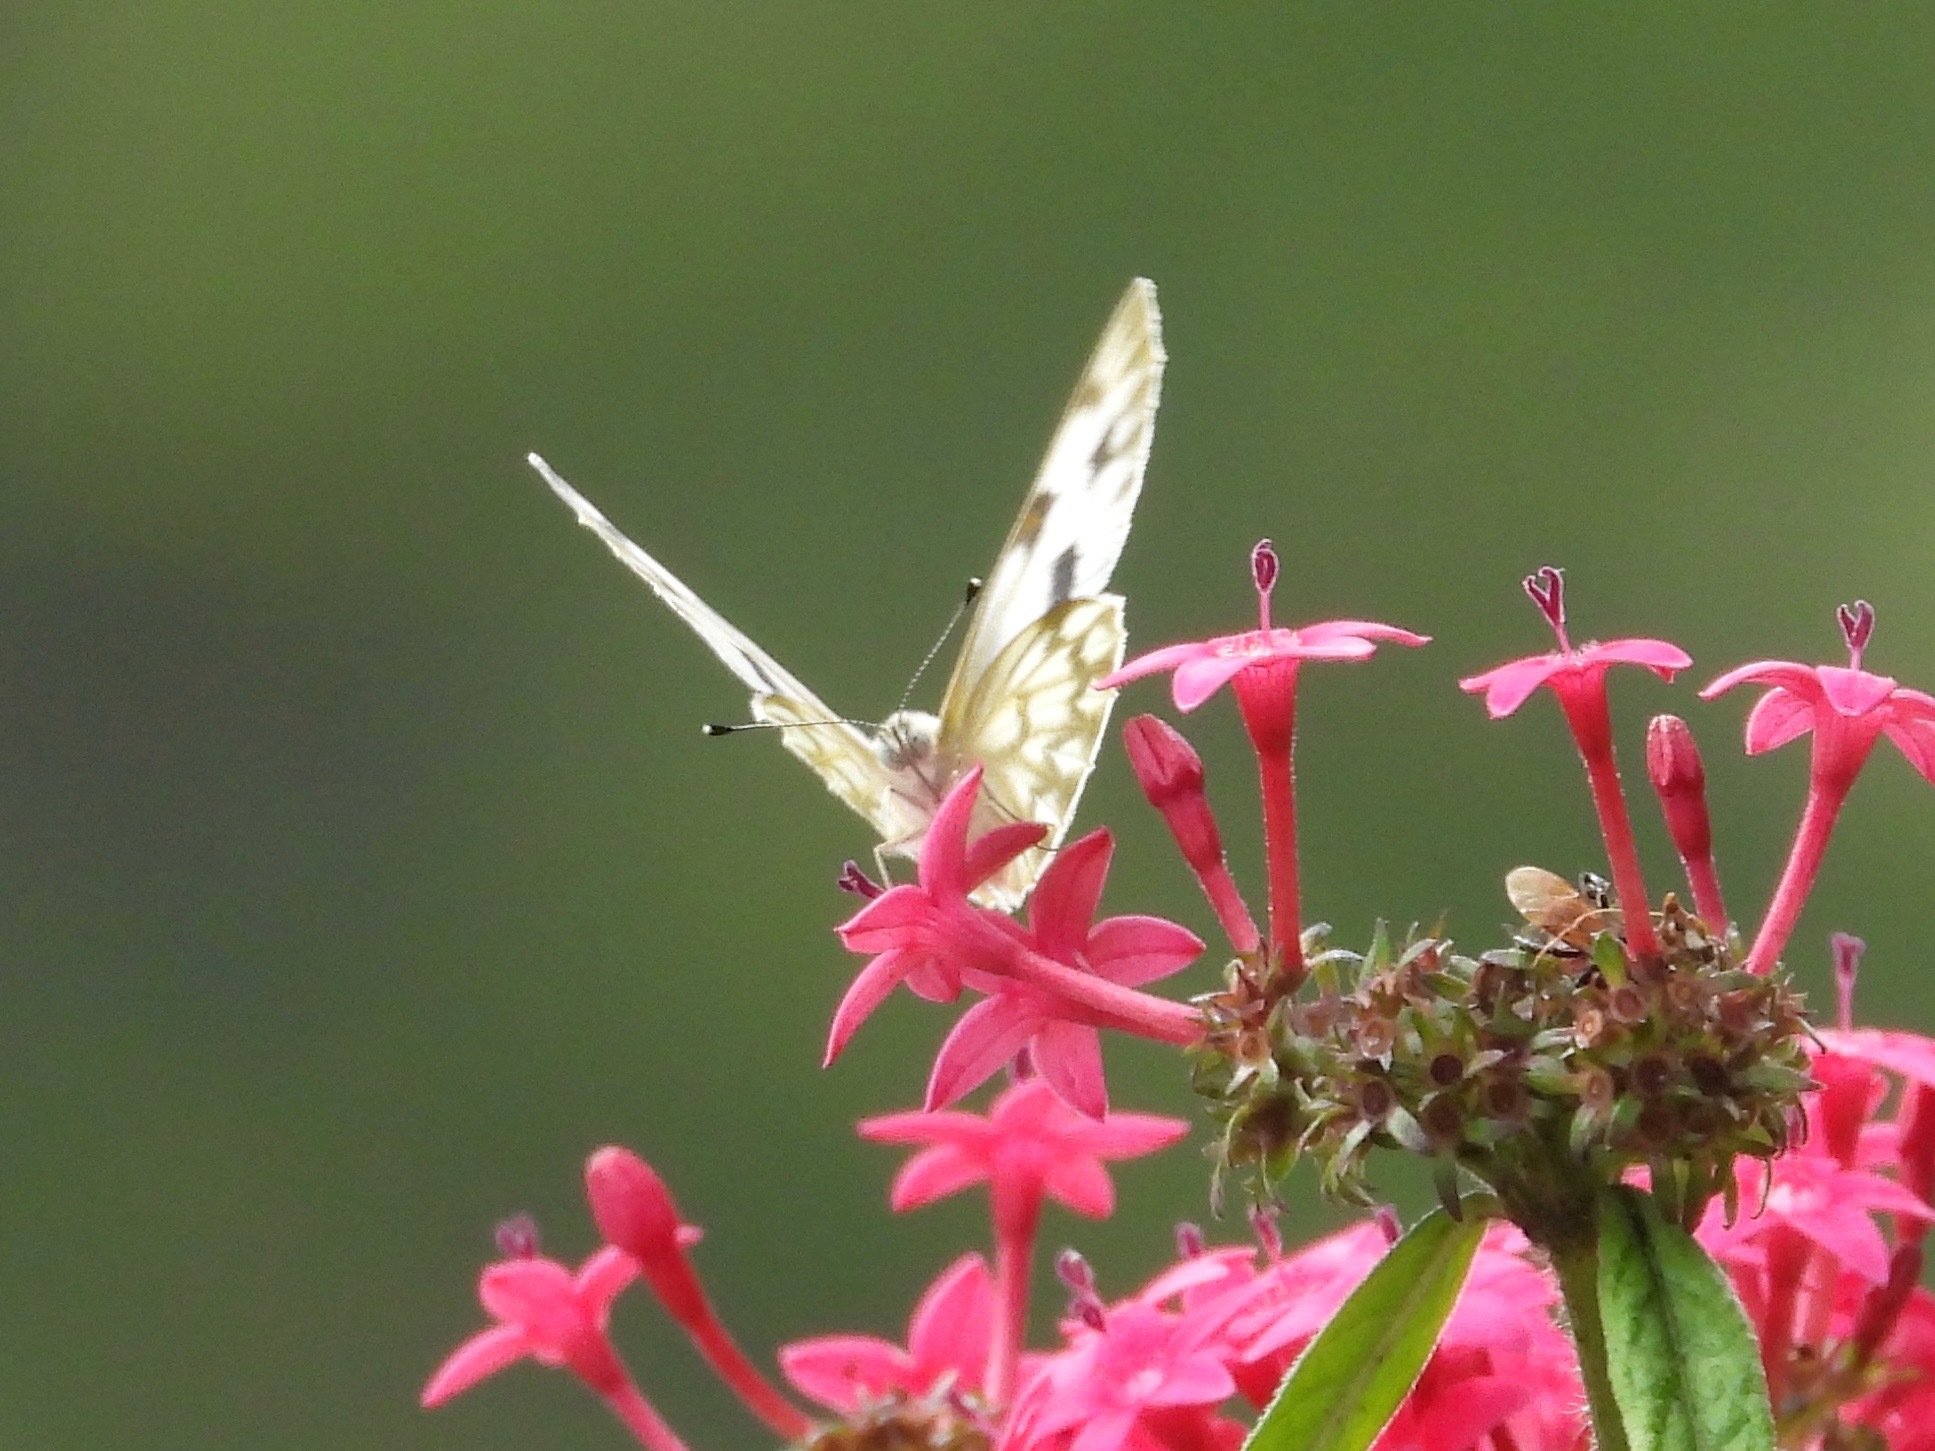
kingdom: Animalia
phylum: Arthropoda
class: Insecta
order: Lepidoptera
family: Pieridae
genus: Pontia
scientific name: Pontia protodice
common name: Checkered white
